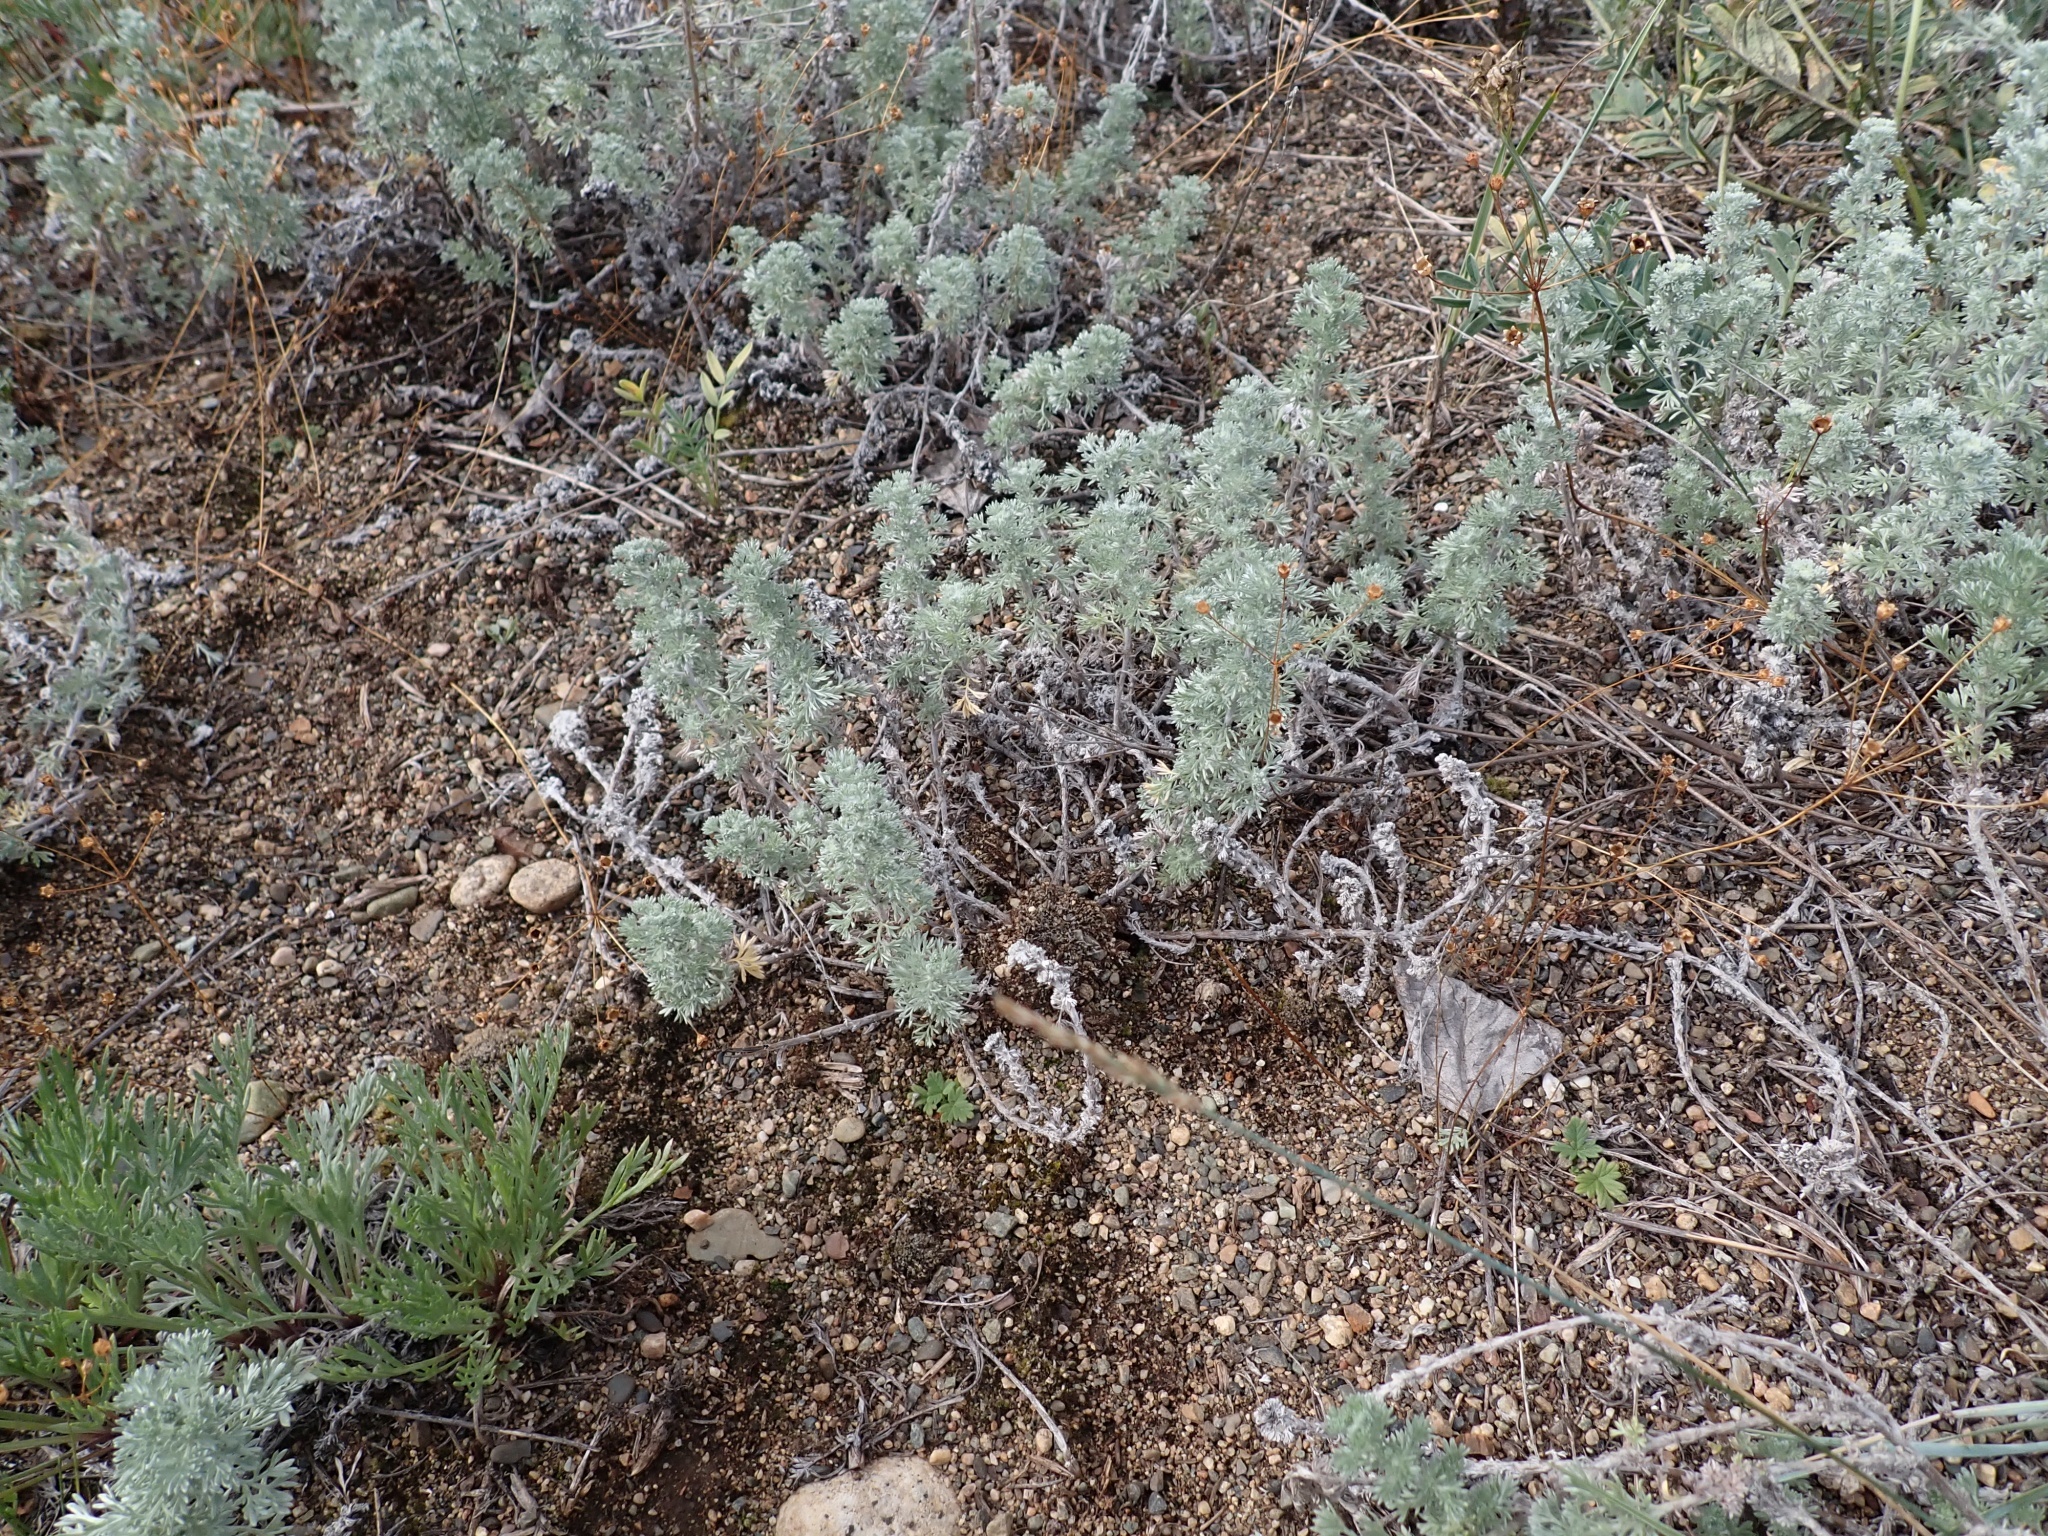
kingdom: Plantae
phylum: Tracheophyta
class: Magnoliopsida
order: Asterales
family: Asteraceae
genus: Artemisia
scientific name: Artemisia frigida
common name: Prairie sagewort
